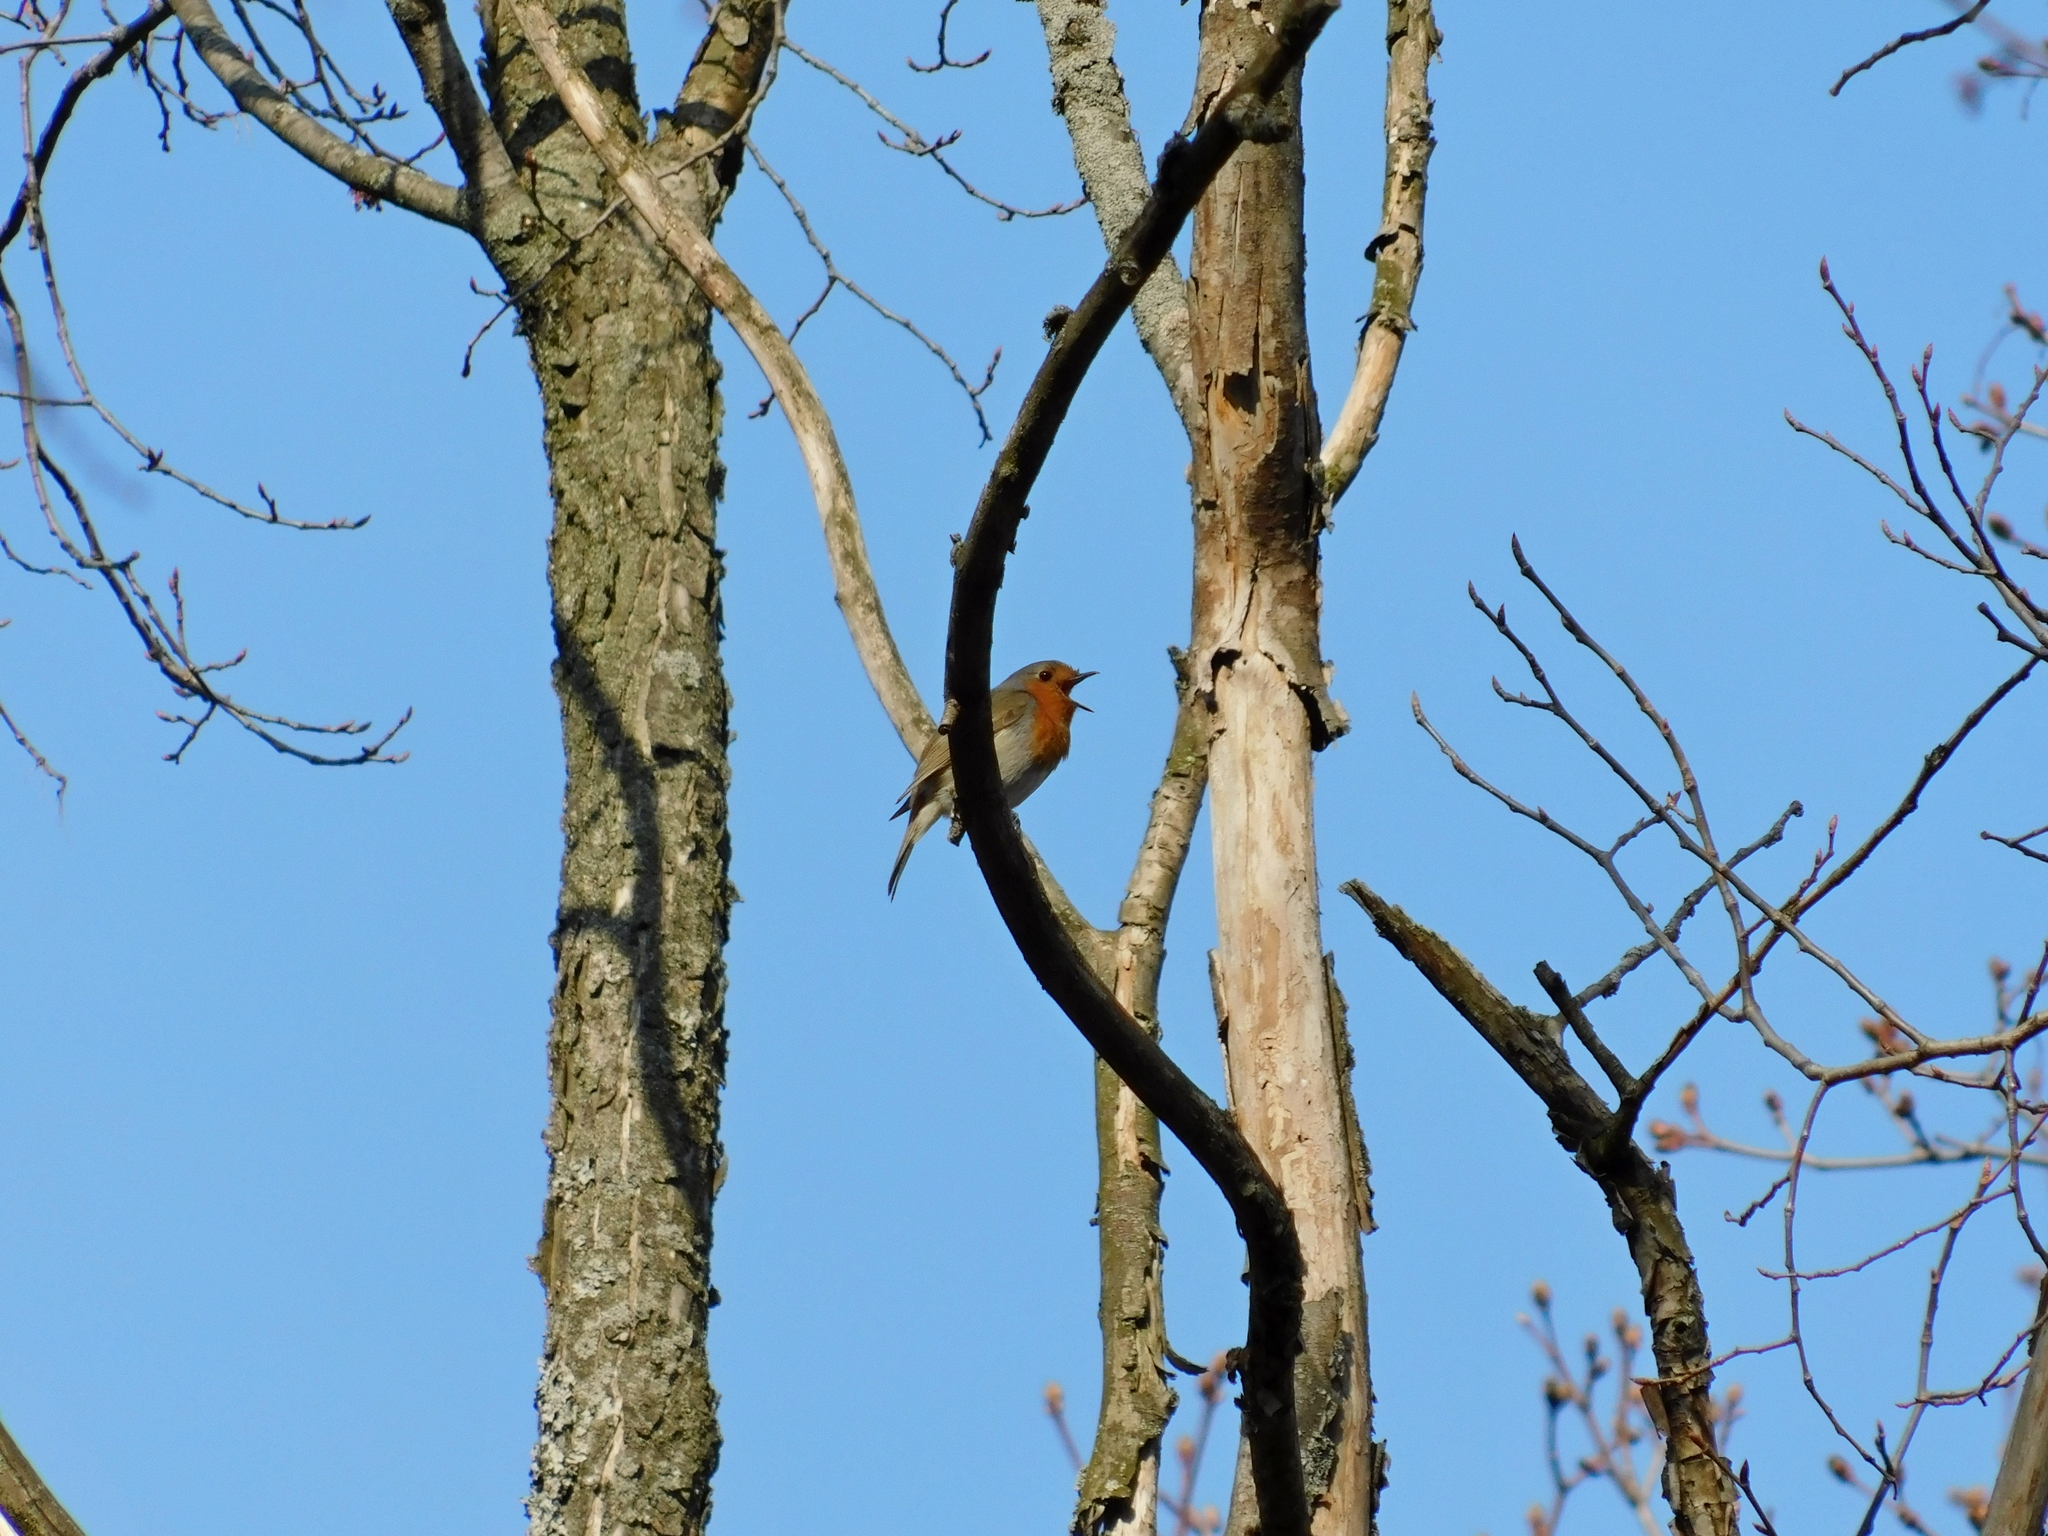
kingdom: Animalia
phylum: Chordata
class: Aves
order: Passeriformes
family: Muscicapidae
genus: Erithacus
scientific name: Erithacus rubecula
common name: European robin
